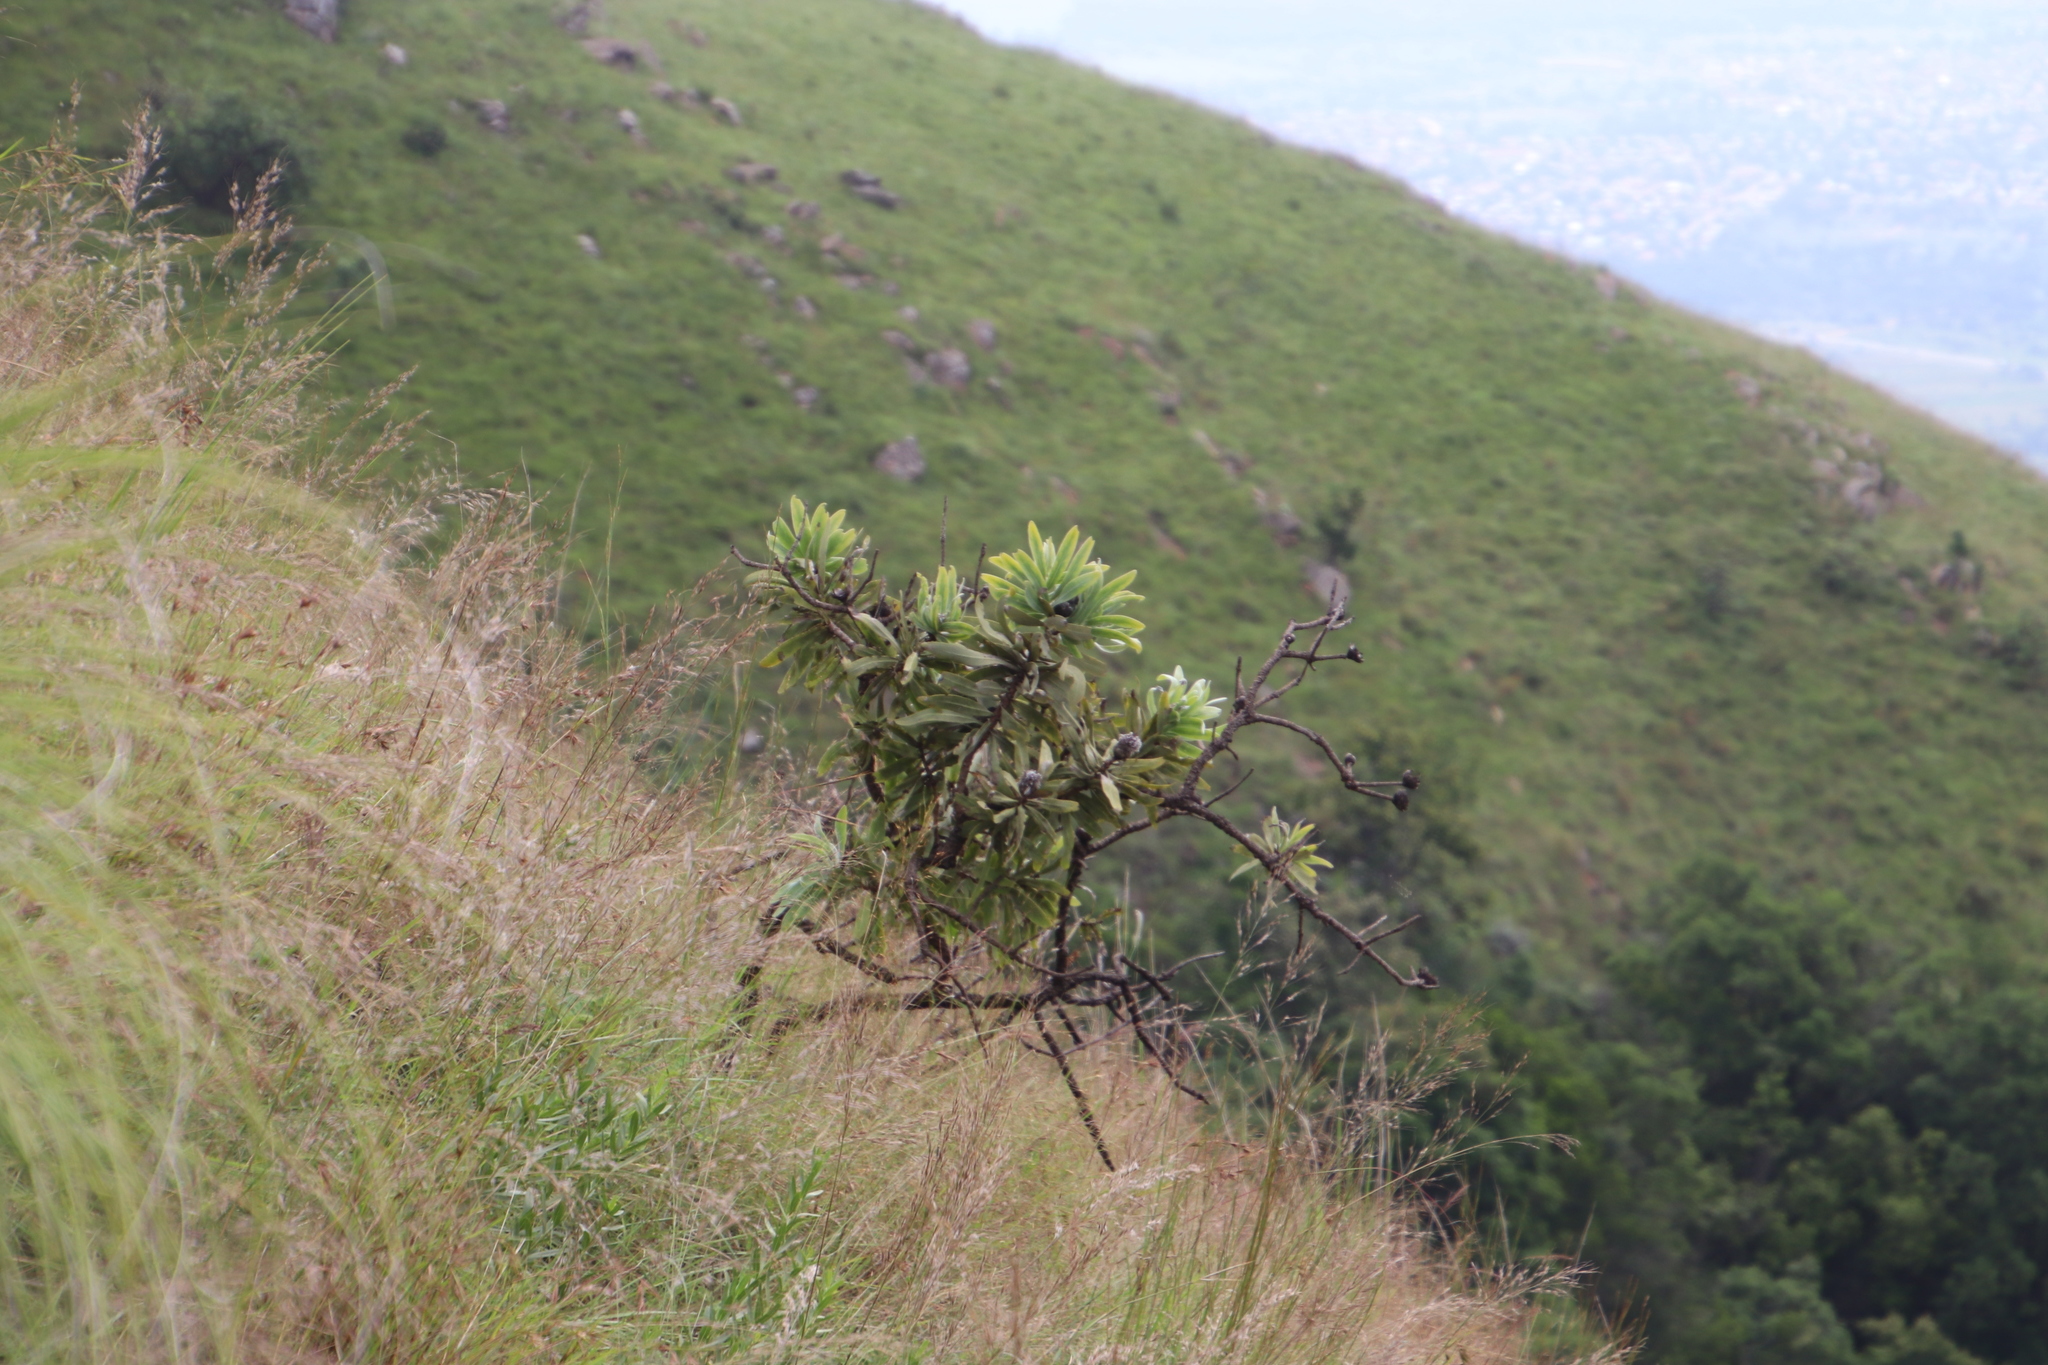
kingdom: Plantae
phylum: Tracheophyta
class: Magnoliopsida
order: Proteales
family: Proteaceae
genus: Protea
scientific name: Protea gaguedi
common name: African protea
